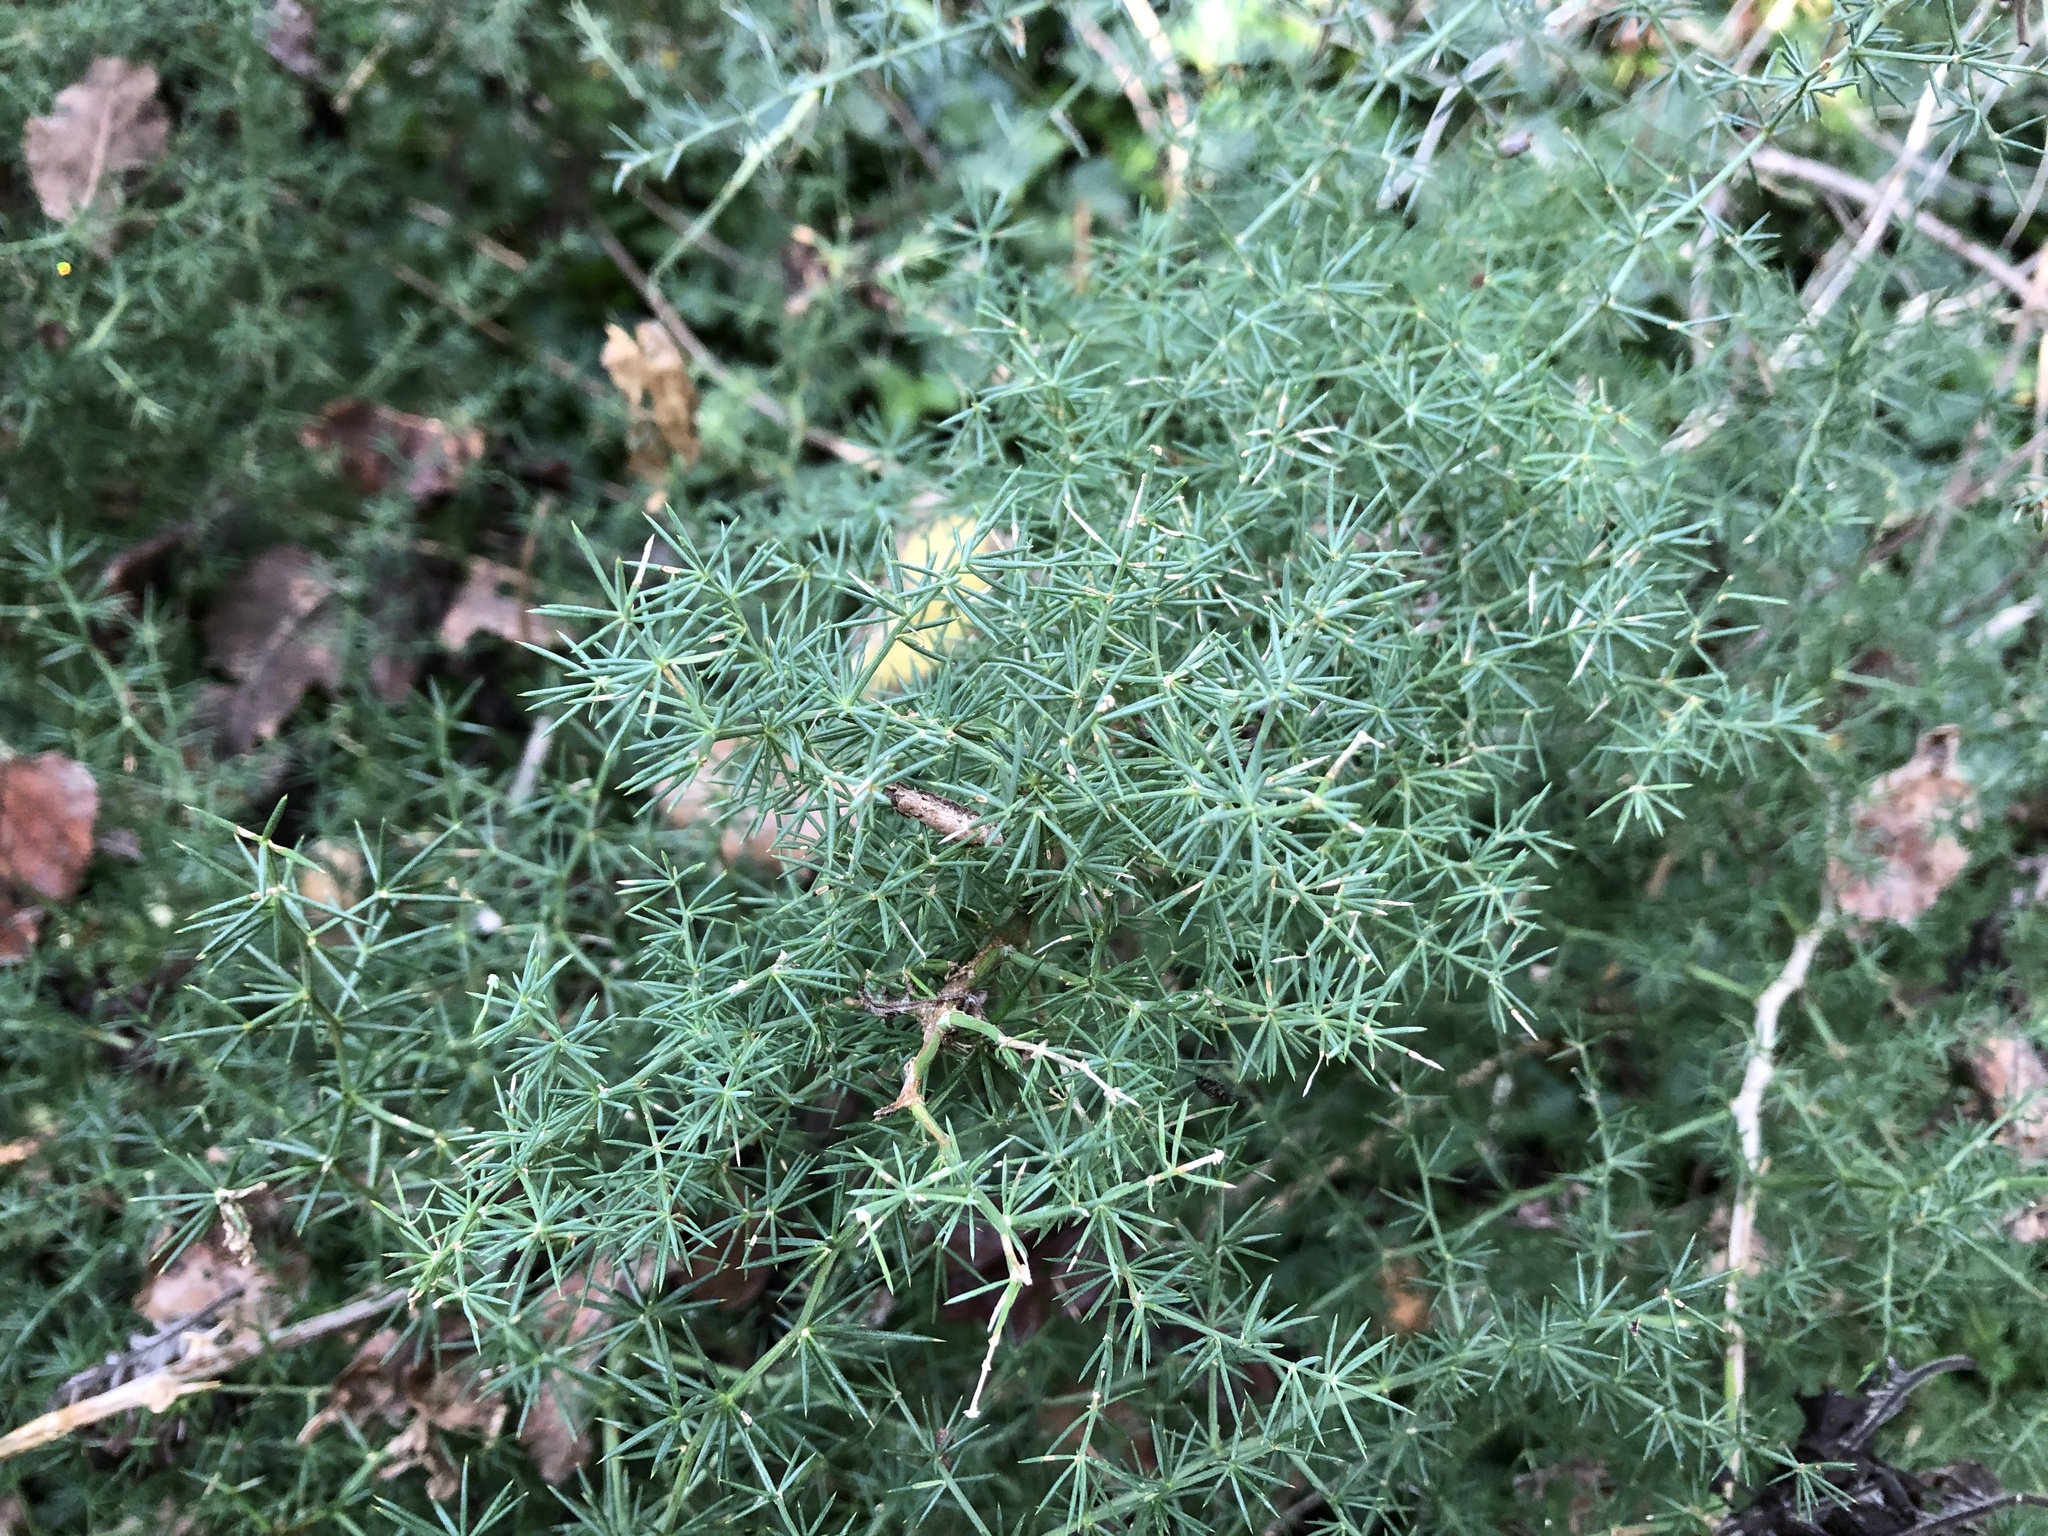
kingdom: Plantae
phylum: Tracheophyta
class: Liliopsida
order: Asparagales
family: Asparagaceae
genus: Asparagus
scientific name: Asparagus acutifolius
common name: Wild asparagus
